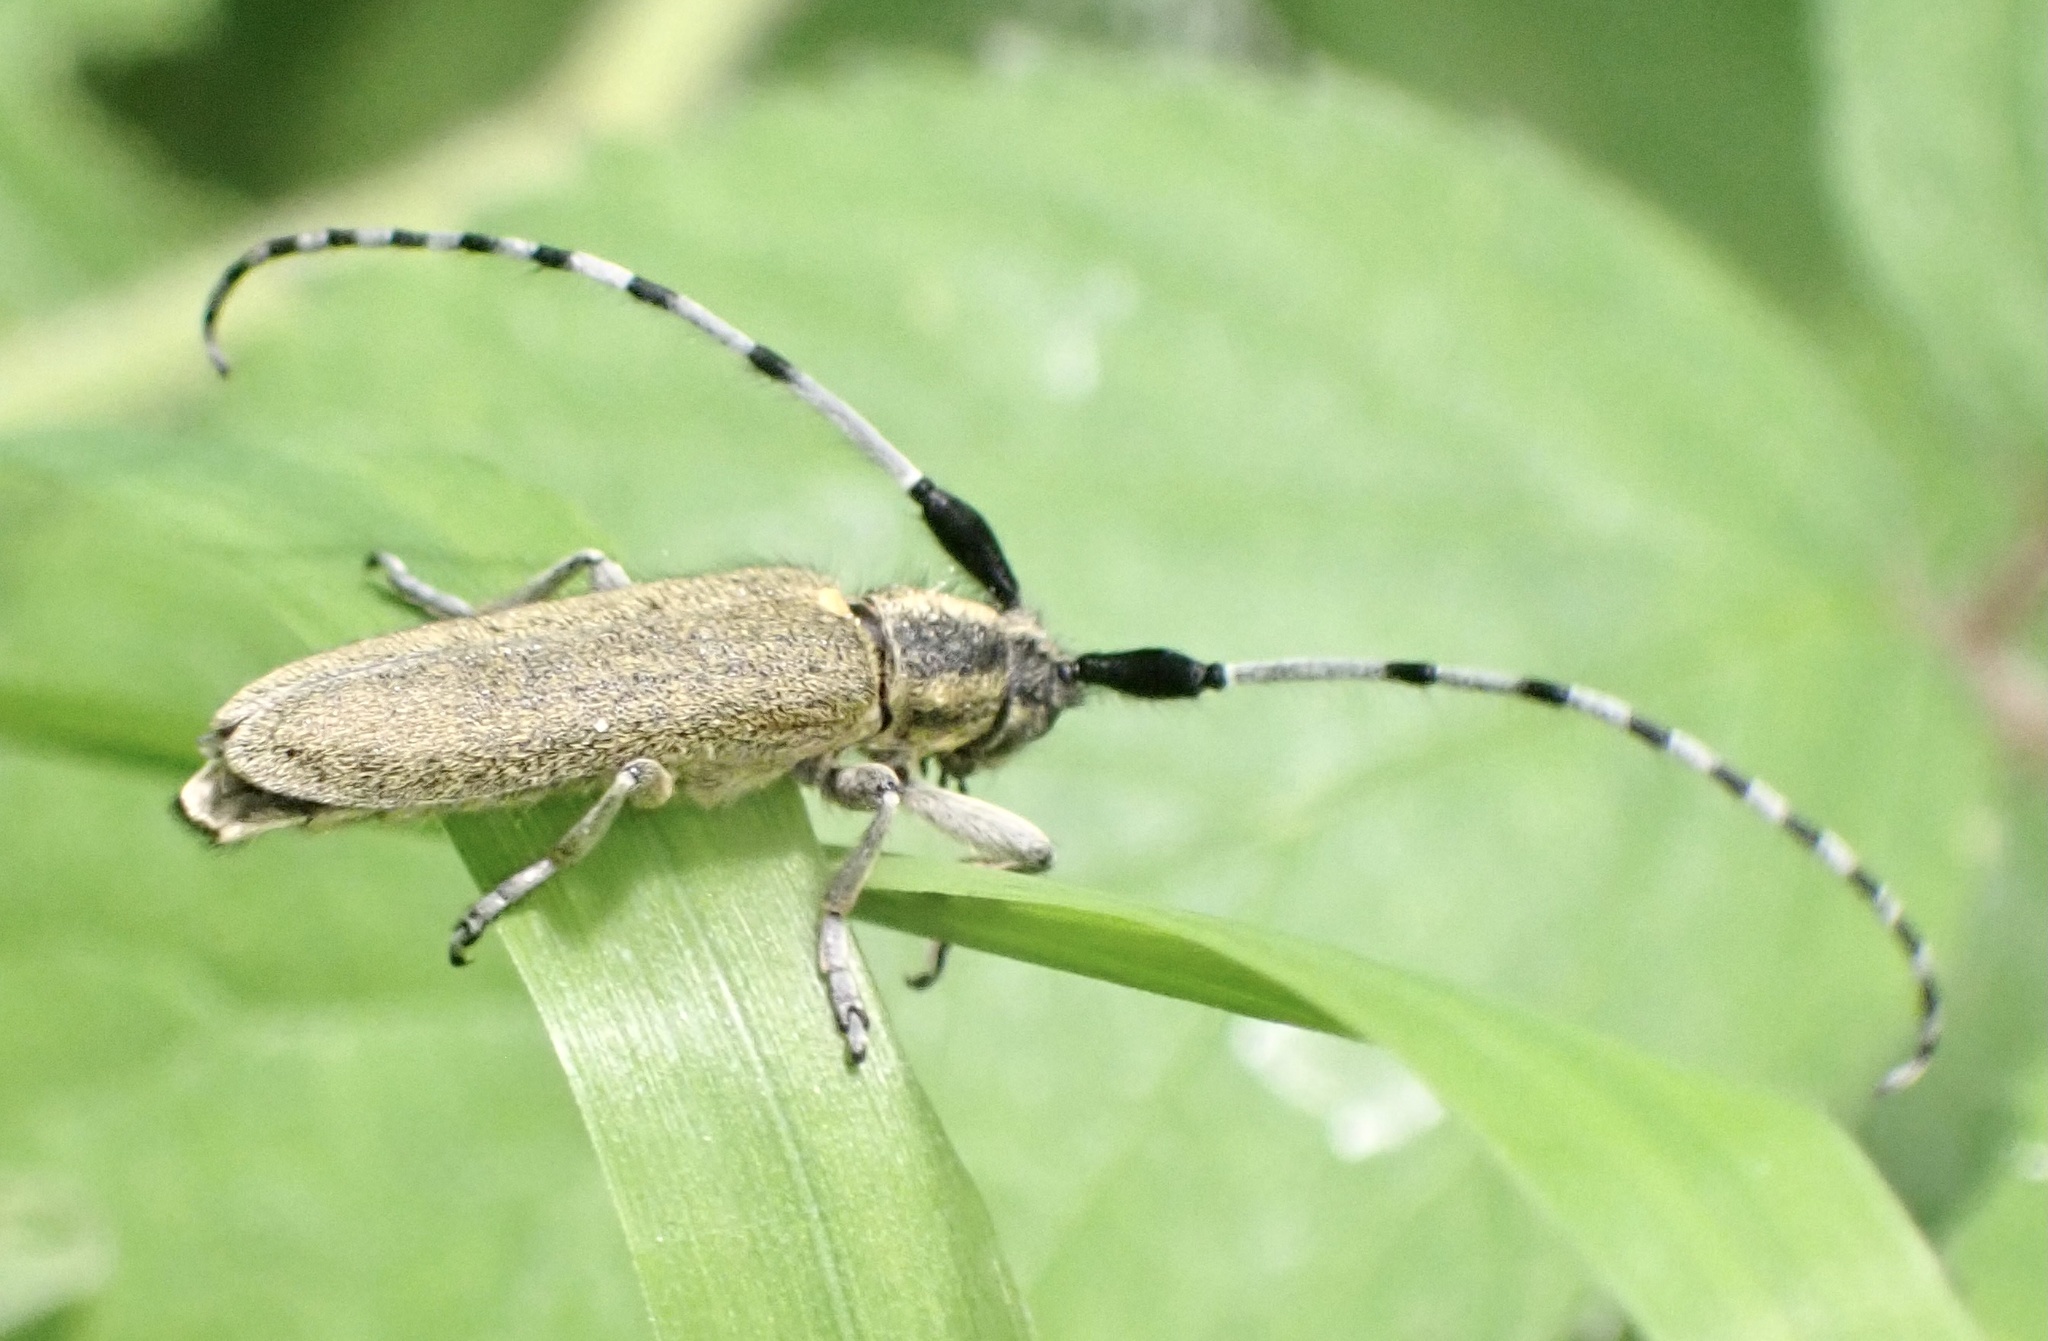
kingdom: Animalia
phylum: Arthropoda
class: Insecta
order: Coleoptera
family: Cerambycidae
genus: Agapanthia
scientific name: Agapanthia villosoviridescens
